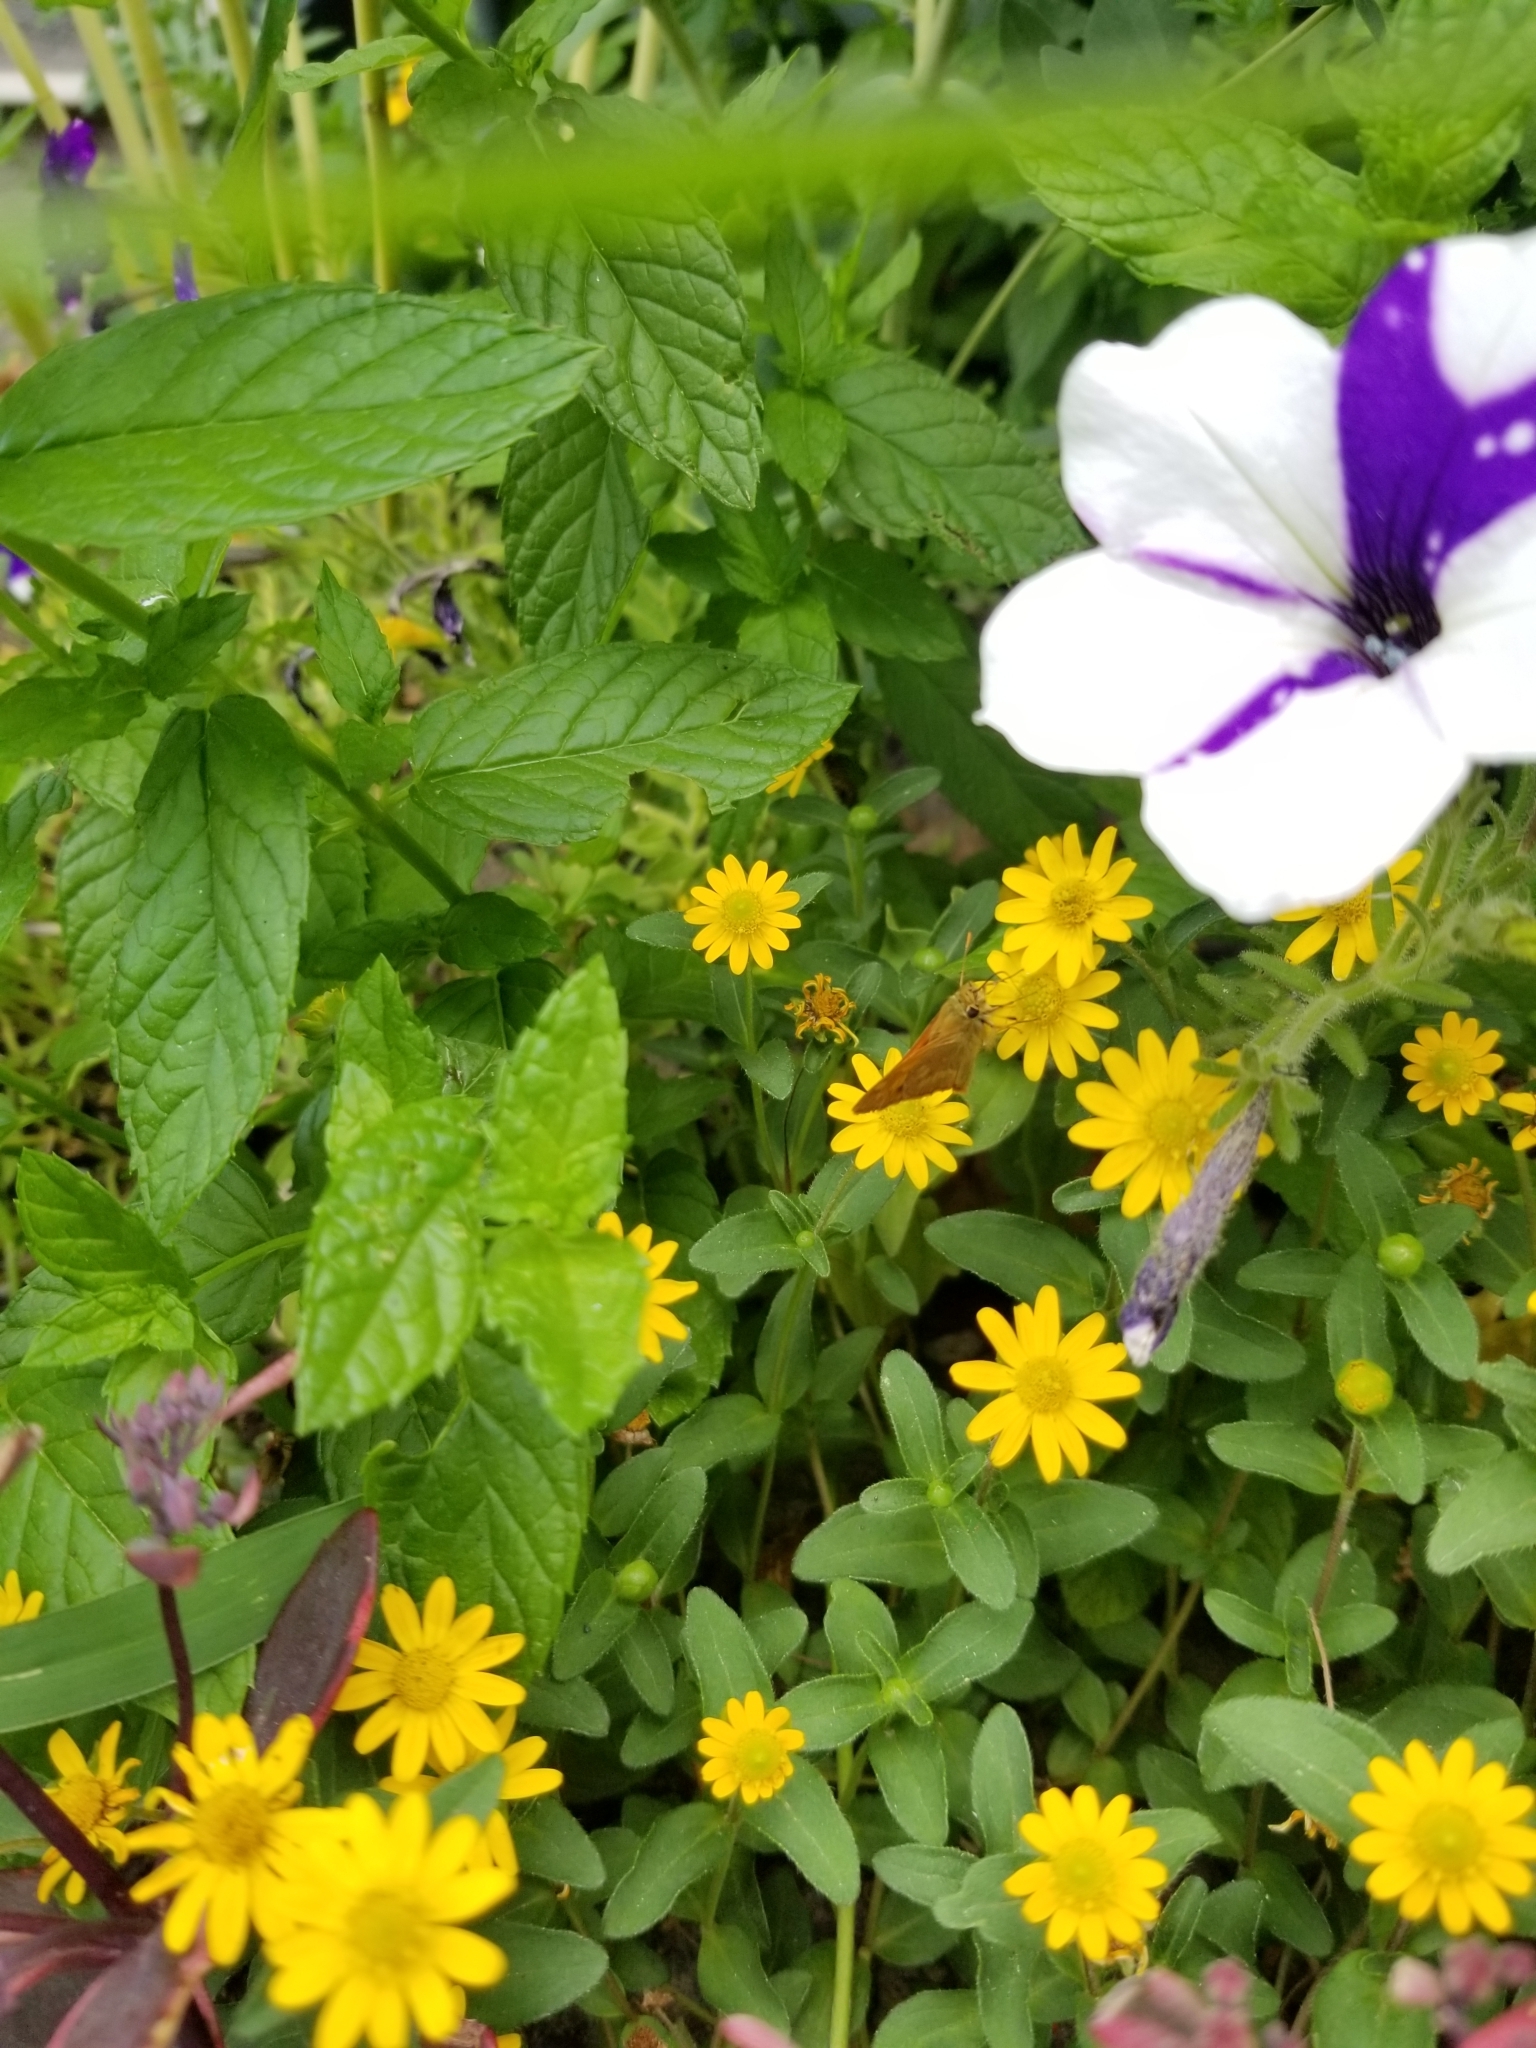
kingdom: Animalia
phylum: Arthropoda
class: Insecta
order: Lepidoptera
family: Hesperiidae
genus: Ochlodes
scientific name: Ochlodes sylvanoides
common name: Woodland skipper
